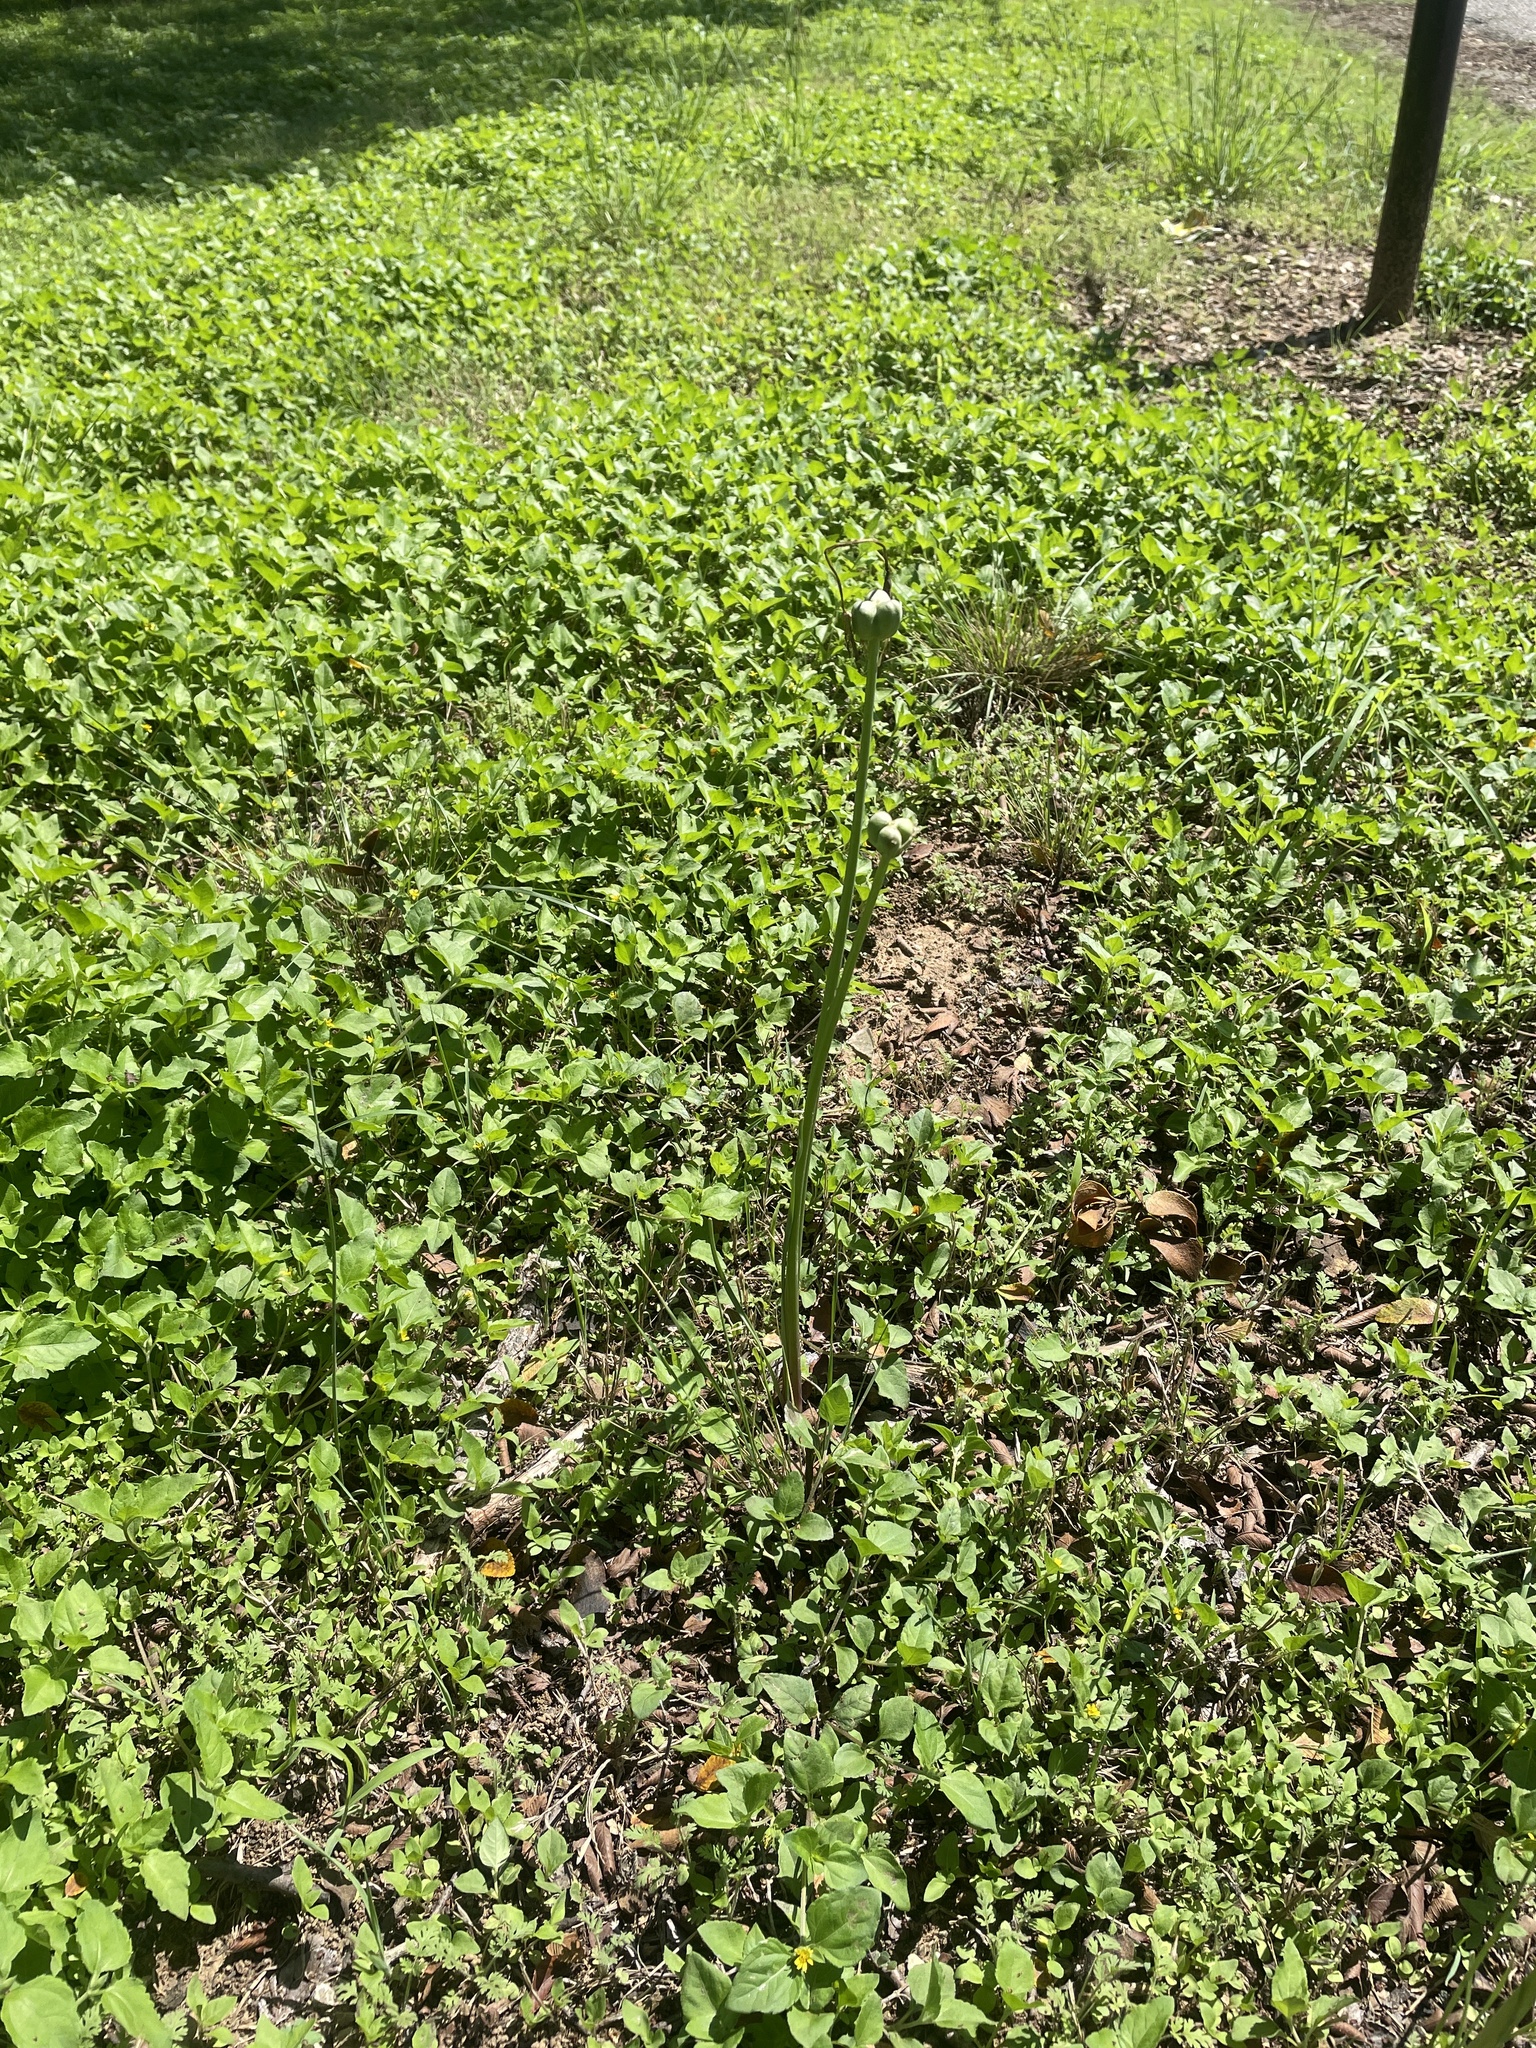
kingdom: Plantae
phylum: Tracheophyta
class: Liliopsida
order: Asparagales
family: Amaryllidaceae
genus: Zephyranthes
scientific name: Zephyranthes chlorosolen
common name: Evening rain-lily
